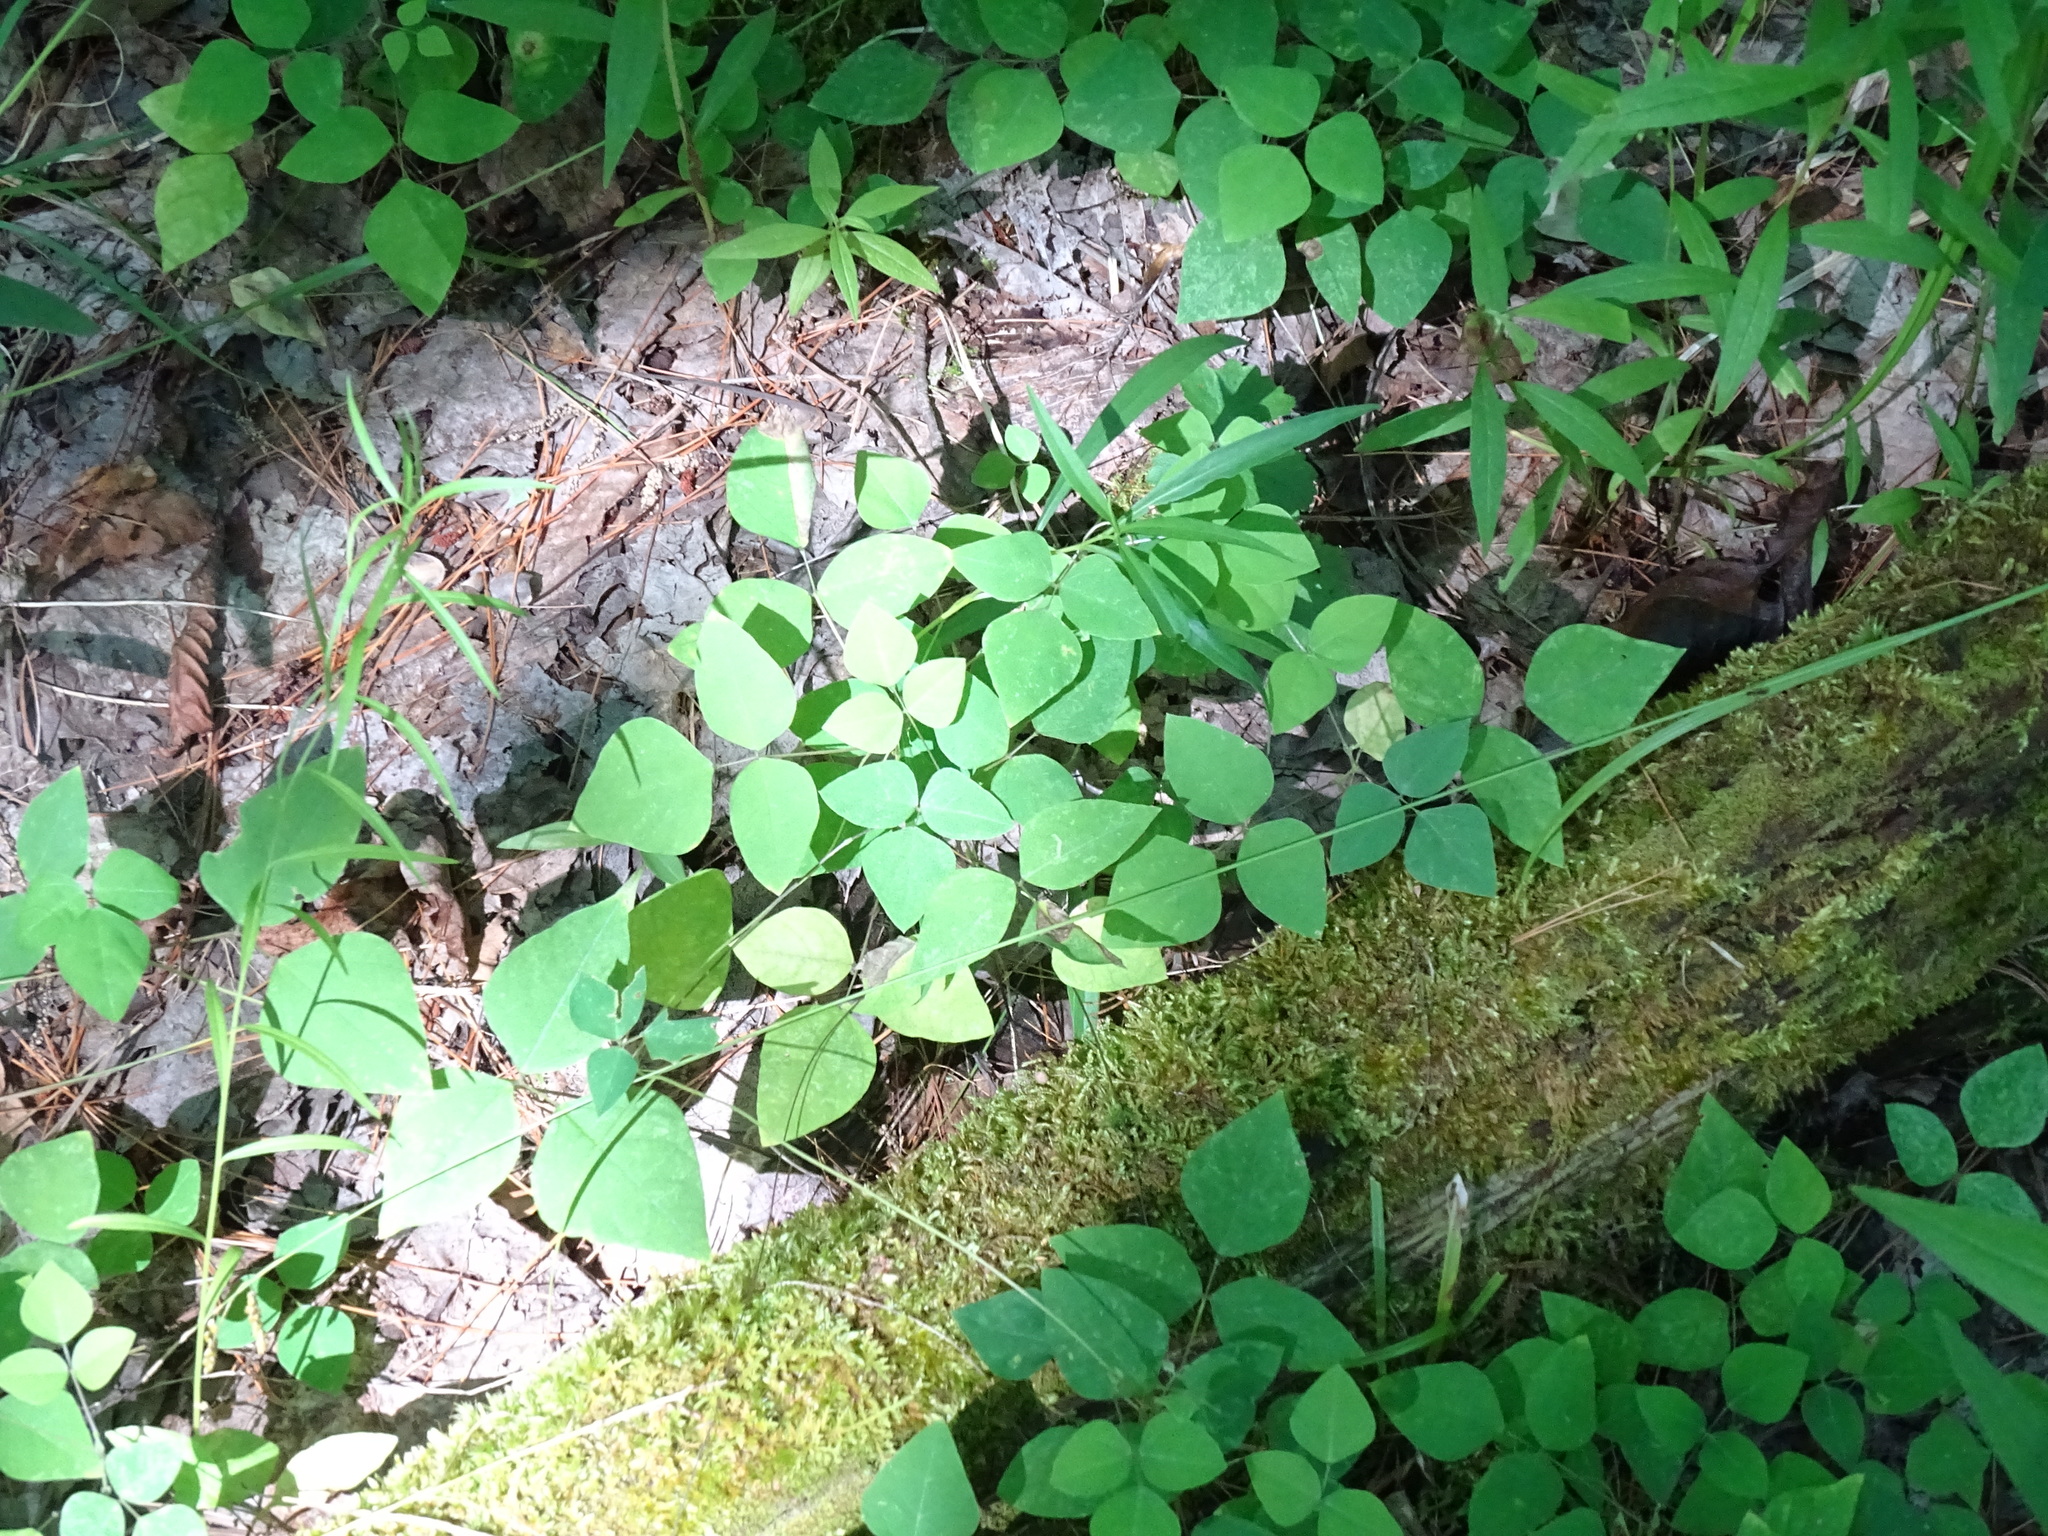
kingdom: Plantae
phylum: Tracheophyta
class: Magnoliopsida
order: Fabales
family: Fabaceae
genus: Amphicarpaea
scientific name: Amphicarpaea bracteata
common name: American hog peanut
